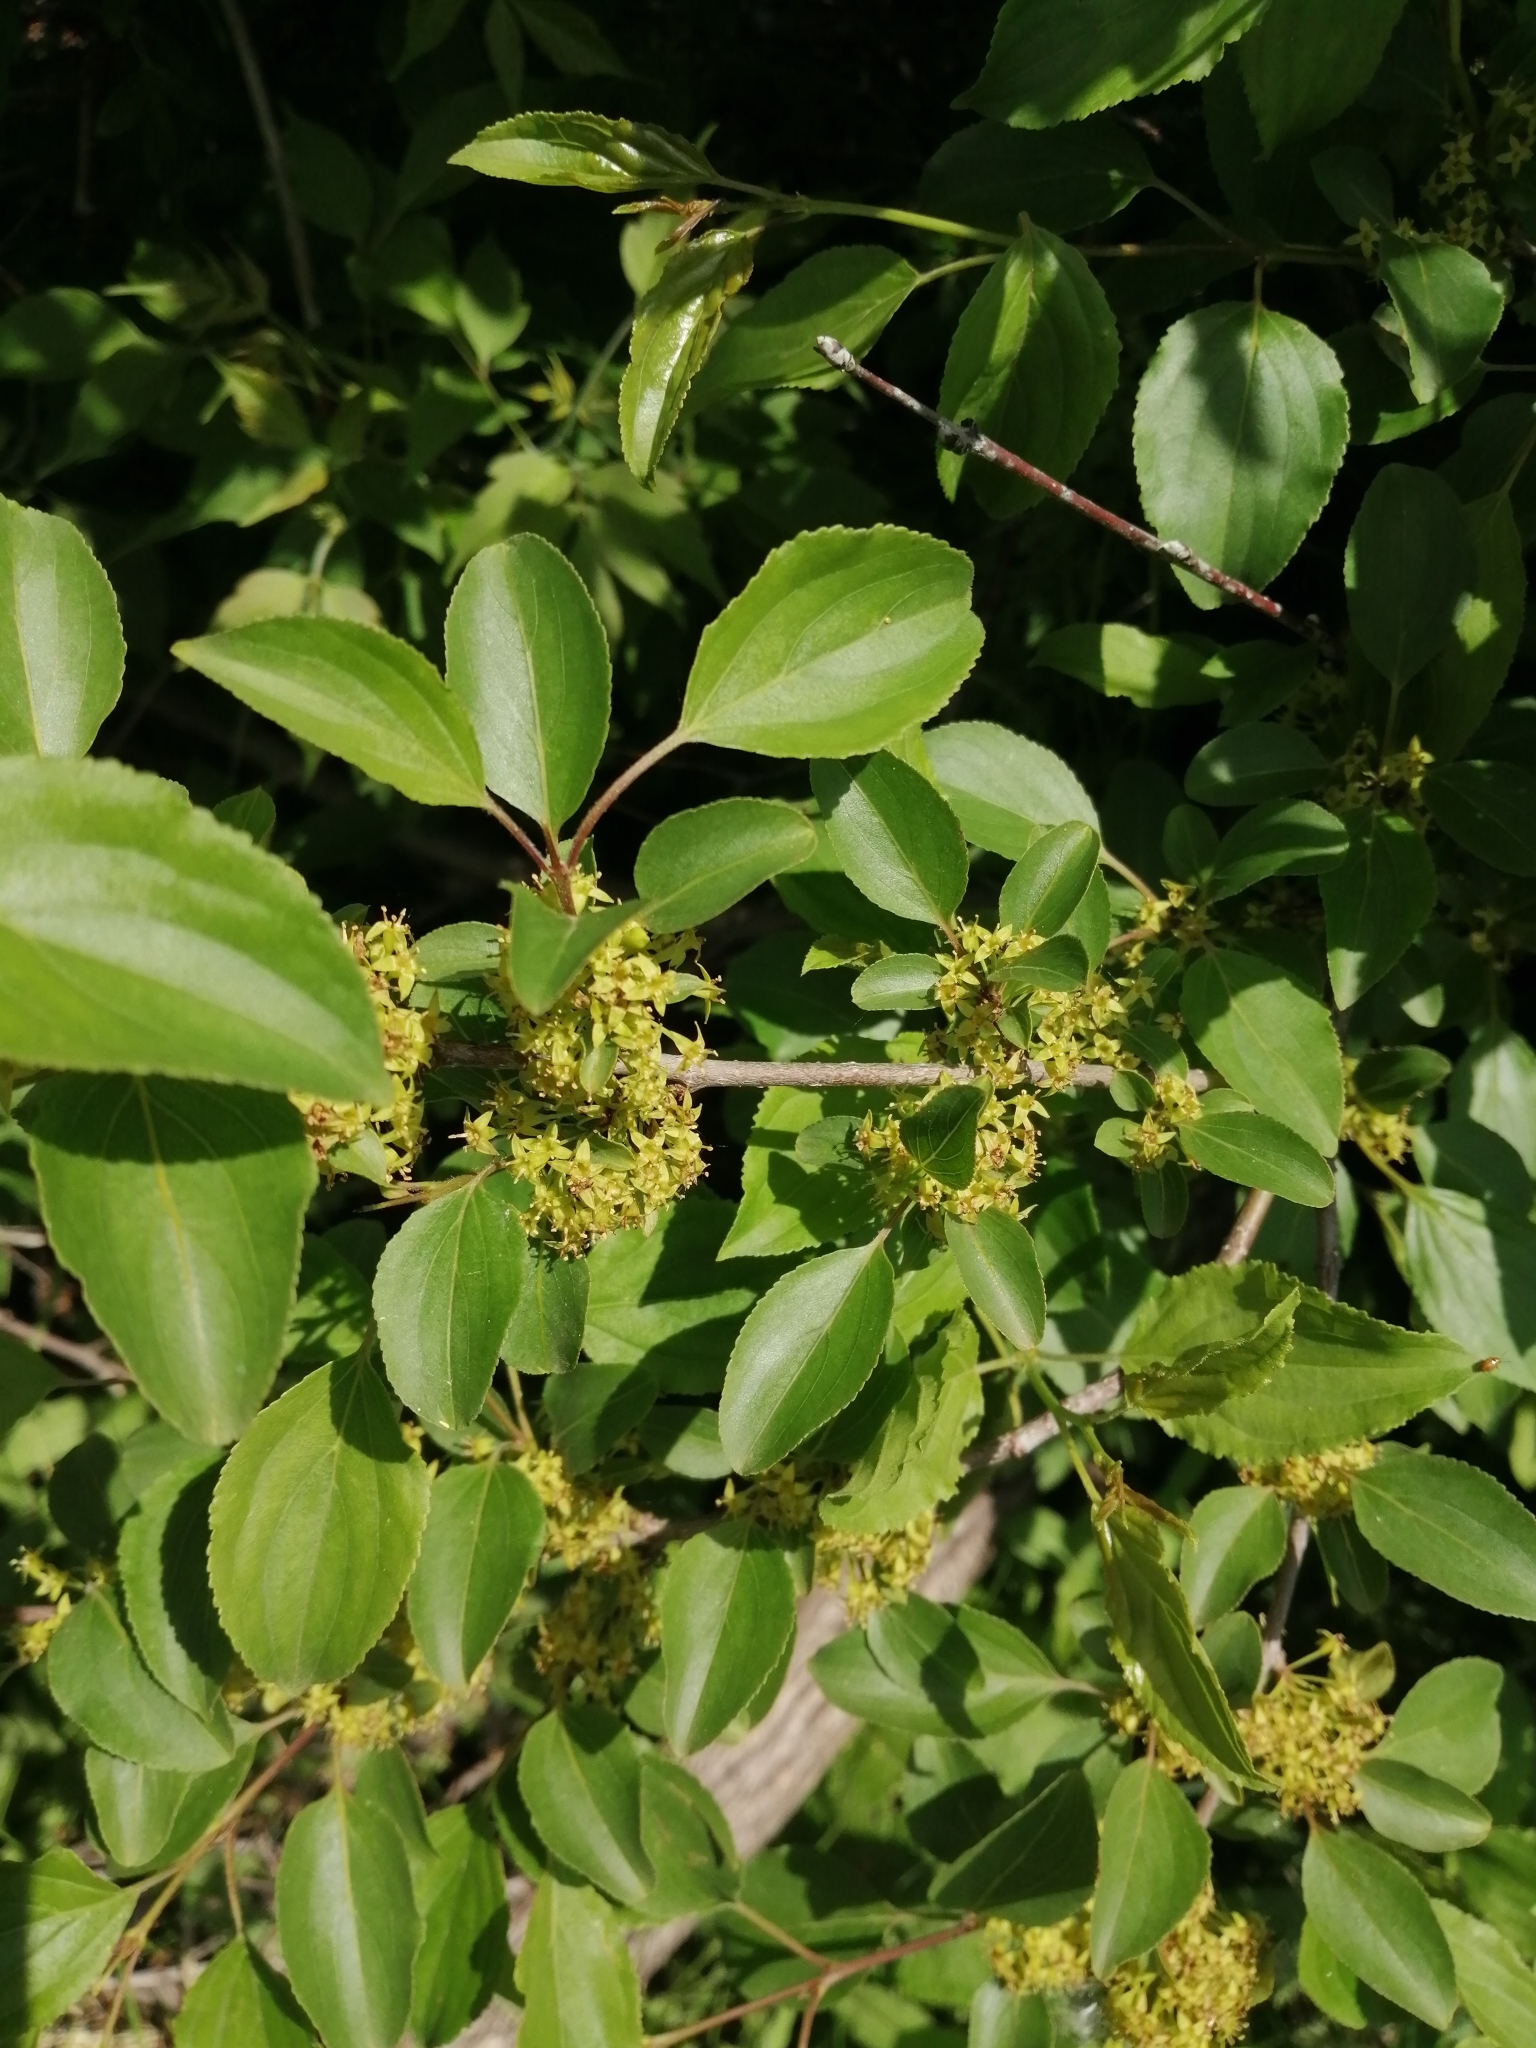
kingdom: Plantae
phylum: Tracheophyta
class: Magnoliopsida
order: Rosales
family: Rhamnaceae
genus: Rhamnus
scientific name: Rhamnus cathartica
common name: Common buckthorn
